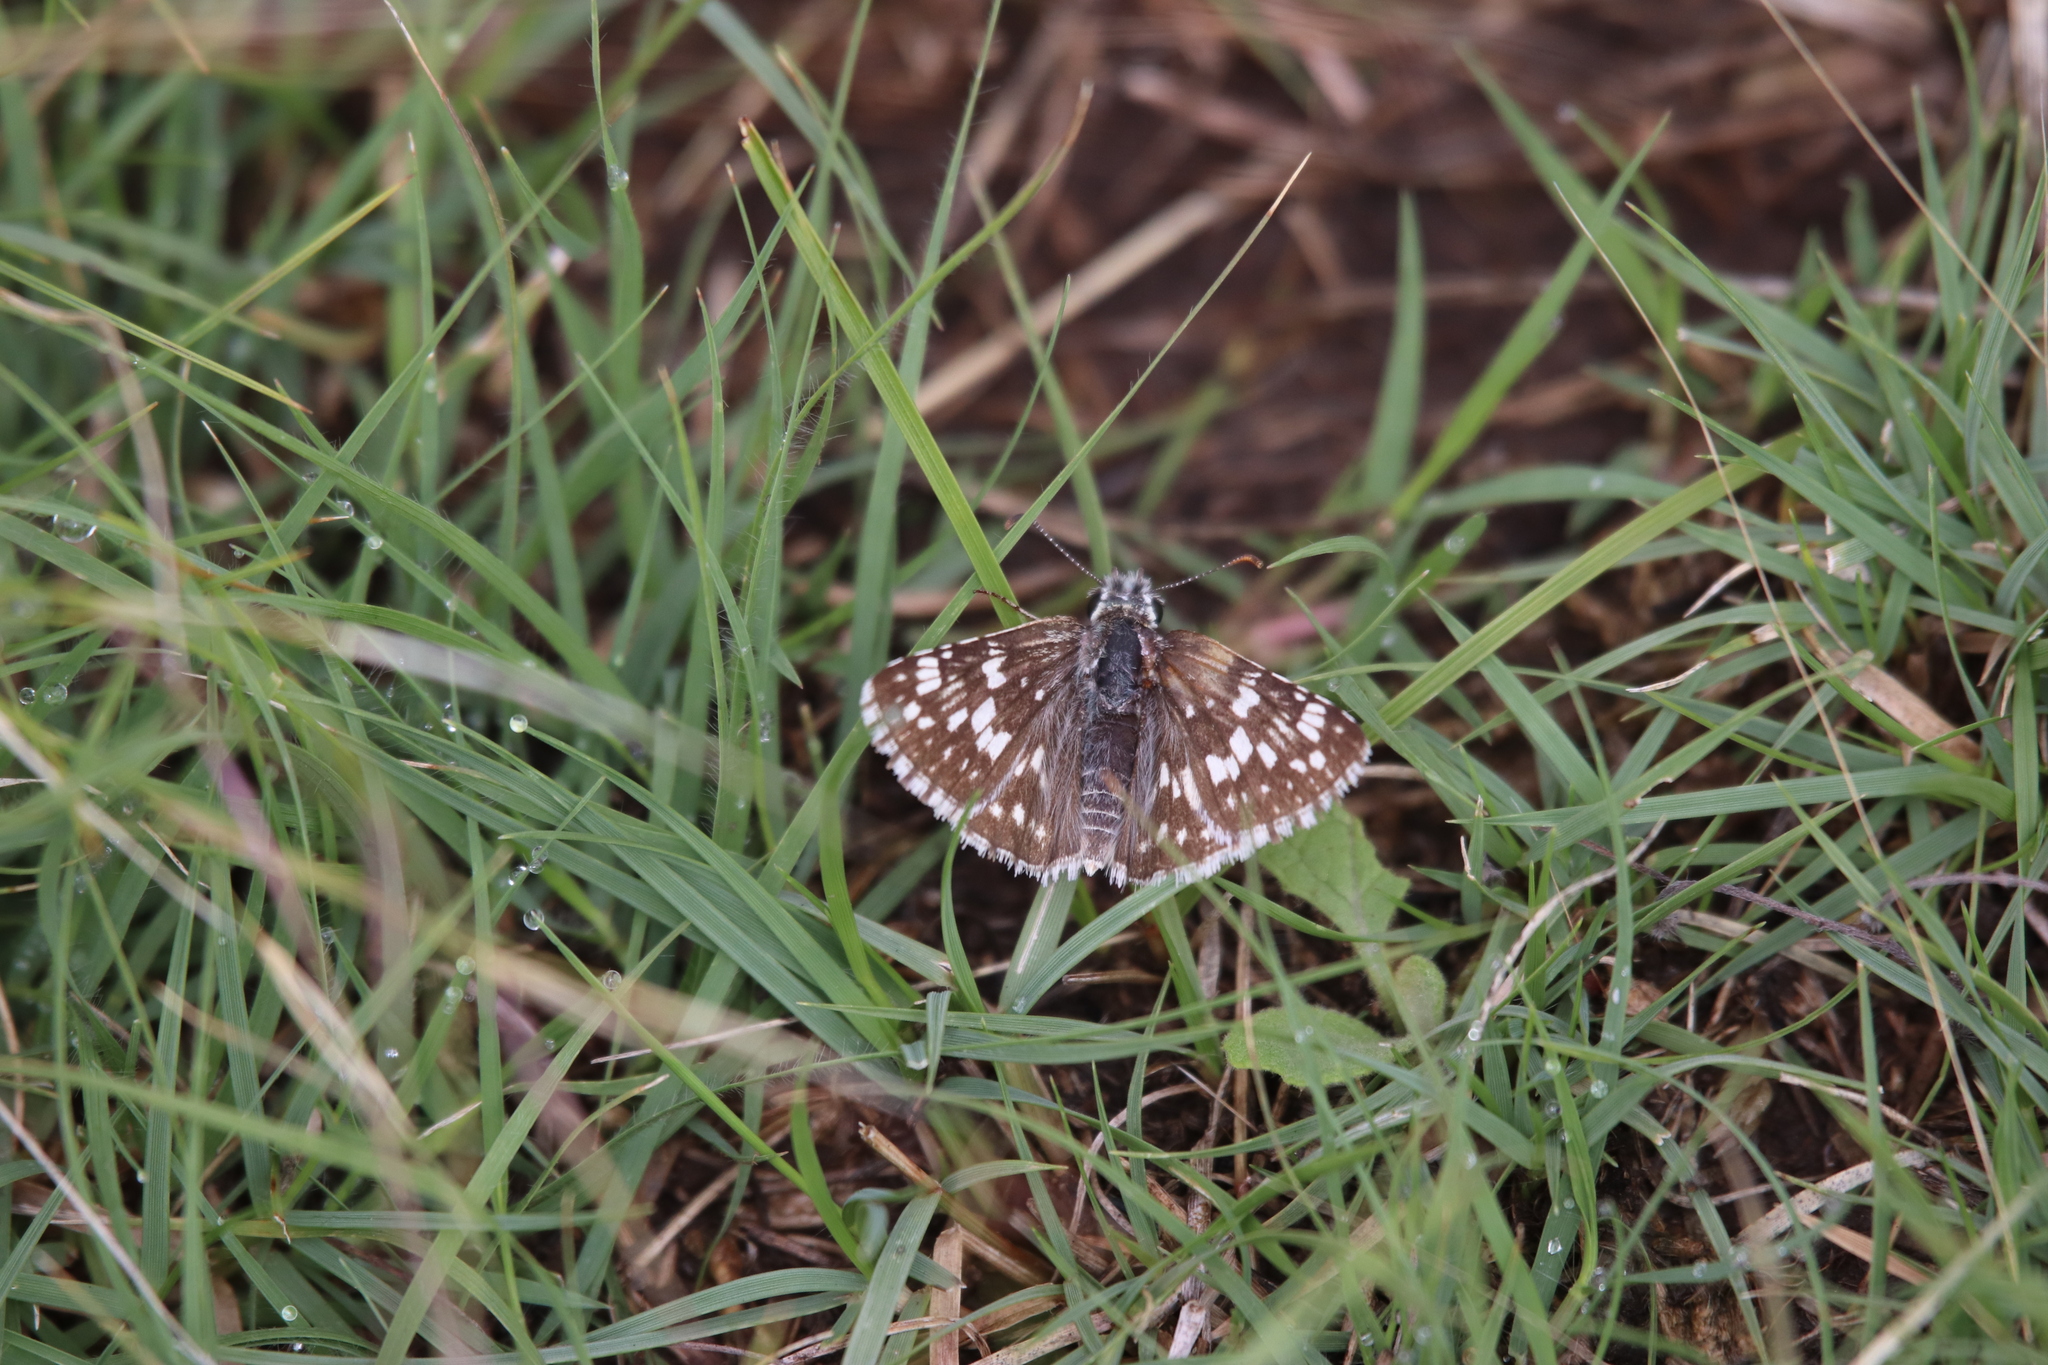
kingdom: Animalia
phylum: Arthropoda
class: Insecta
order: Lepidoptera
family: Hesperiidae
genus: Burnsius
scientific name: Burnsius communis
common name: Common checkered-skipper
